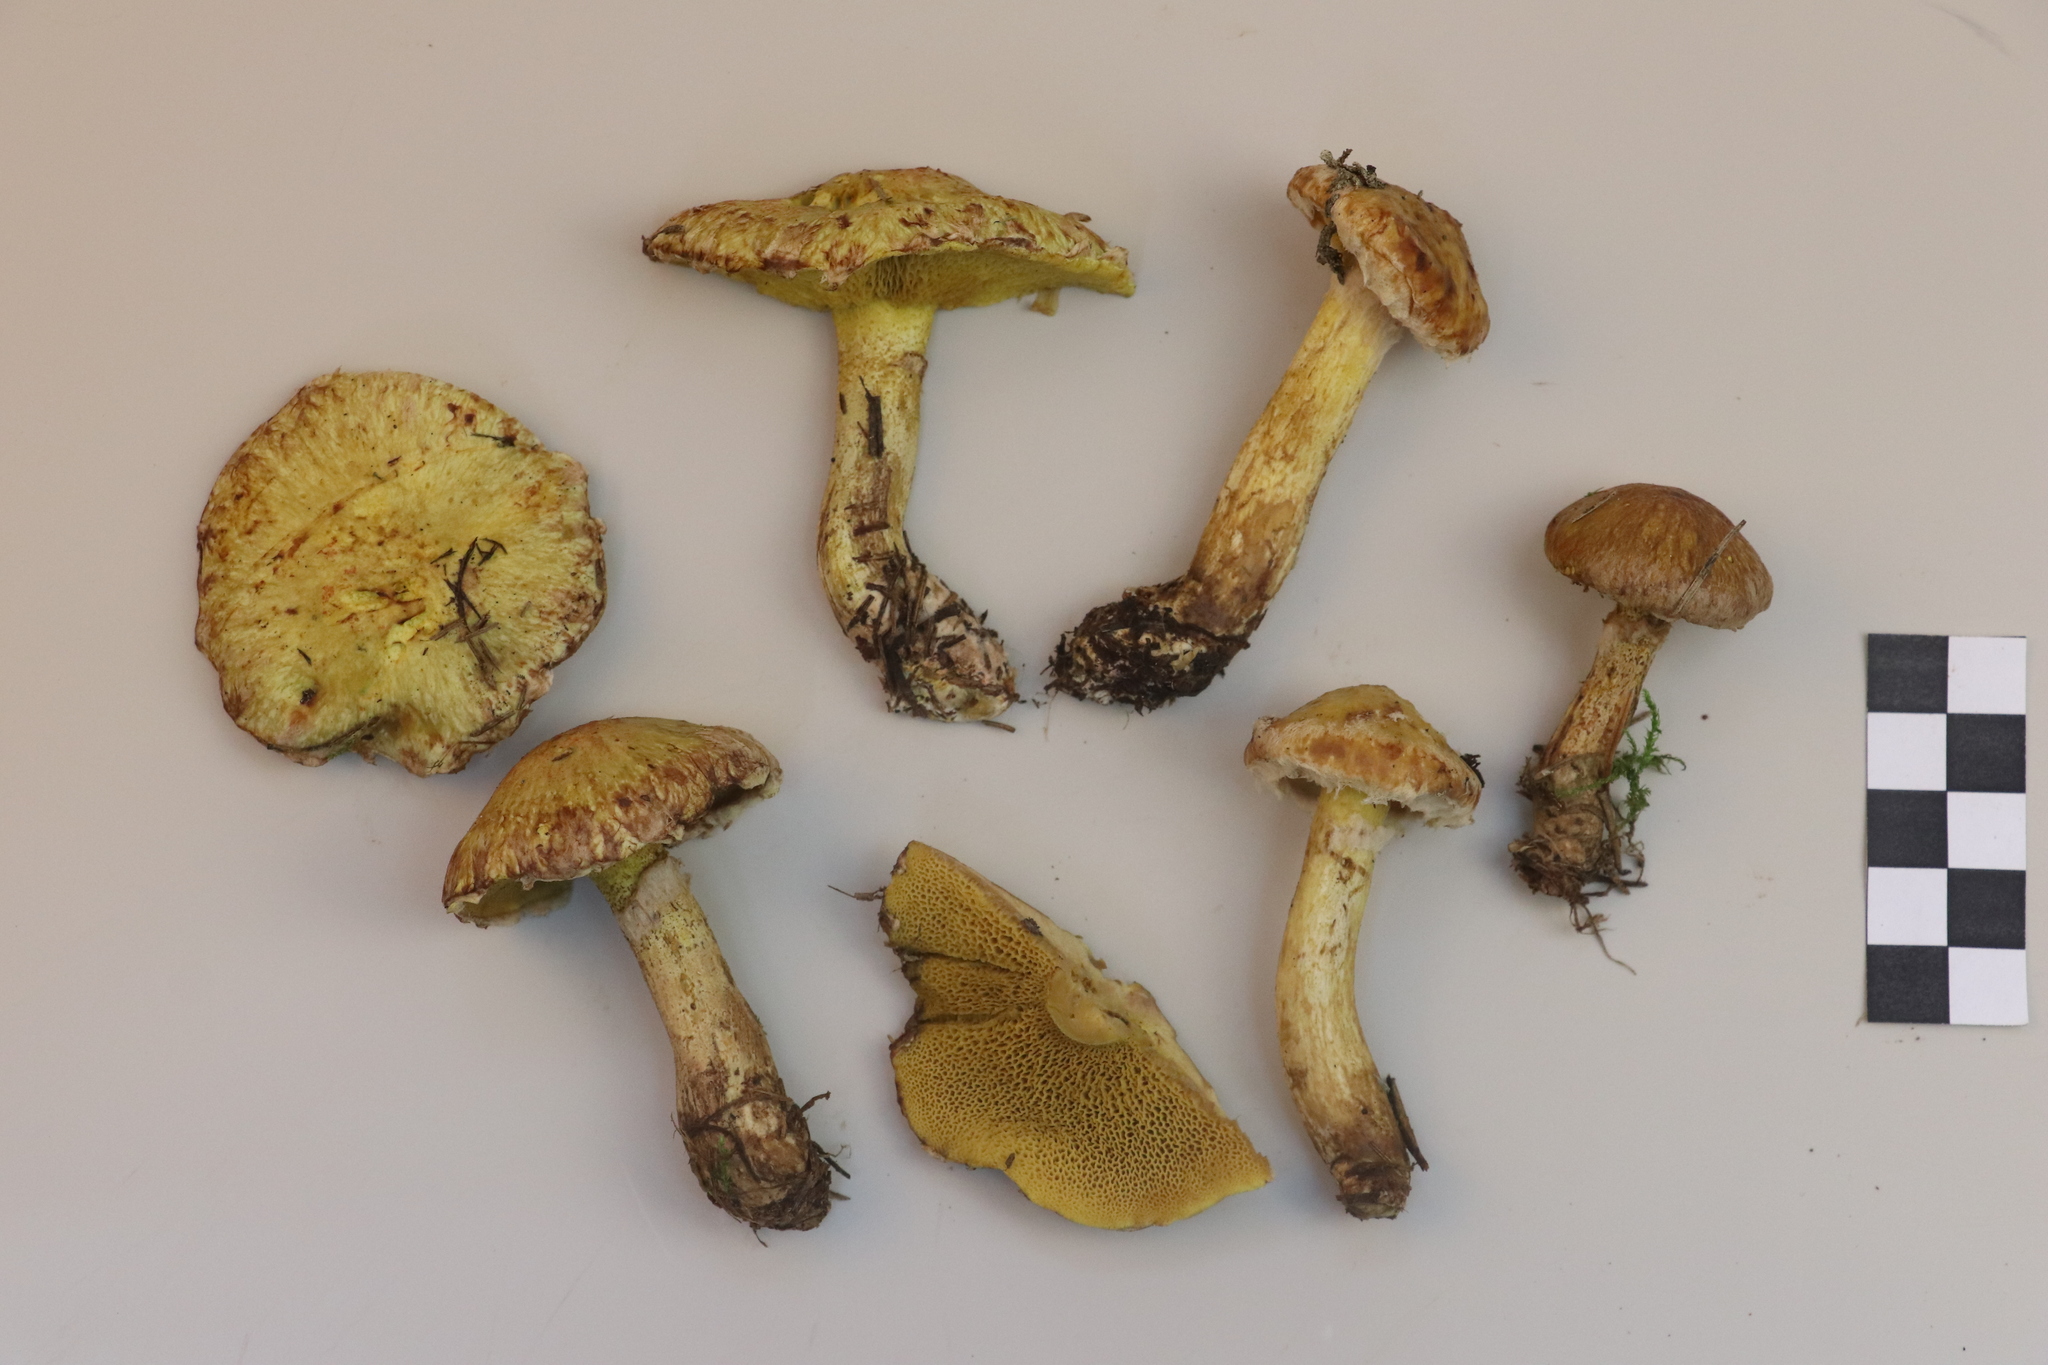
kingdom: Fungi
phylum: Basidiomycota
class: Agaricomycetes
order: Boletales
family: Suillaceae
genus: Suillus
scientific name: Suillus americanus
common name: Chicken fat mushroom
